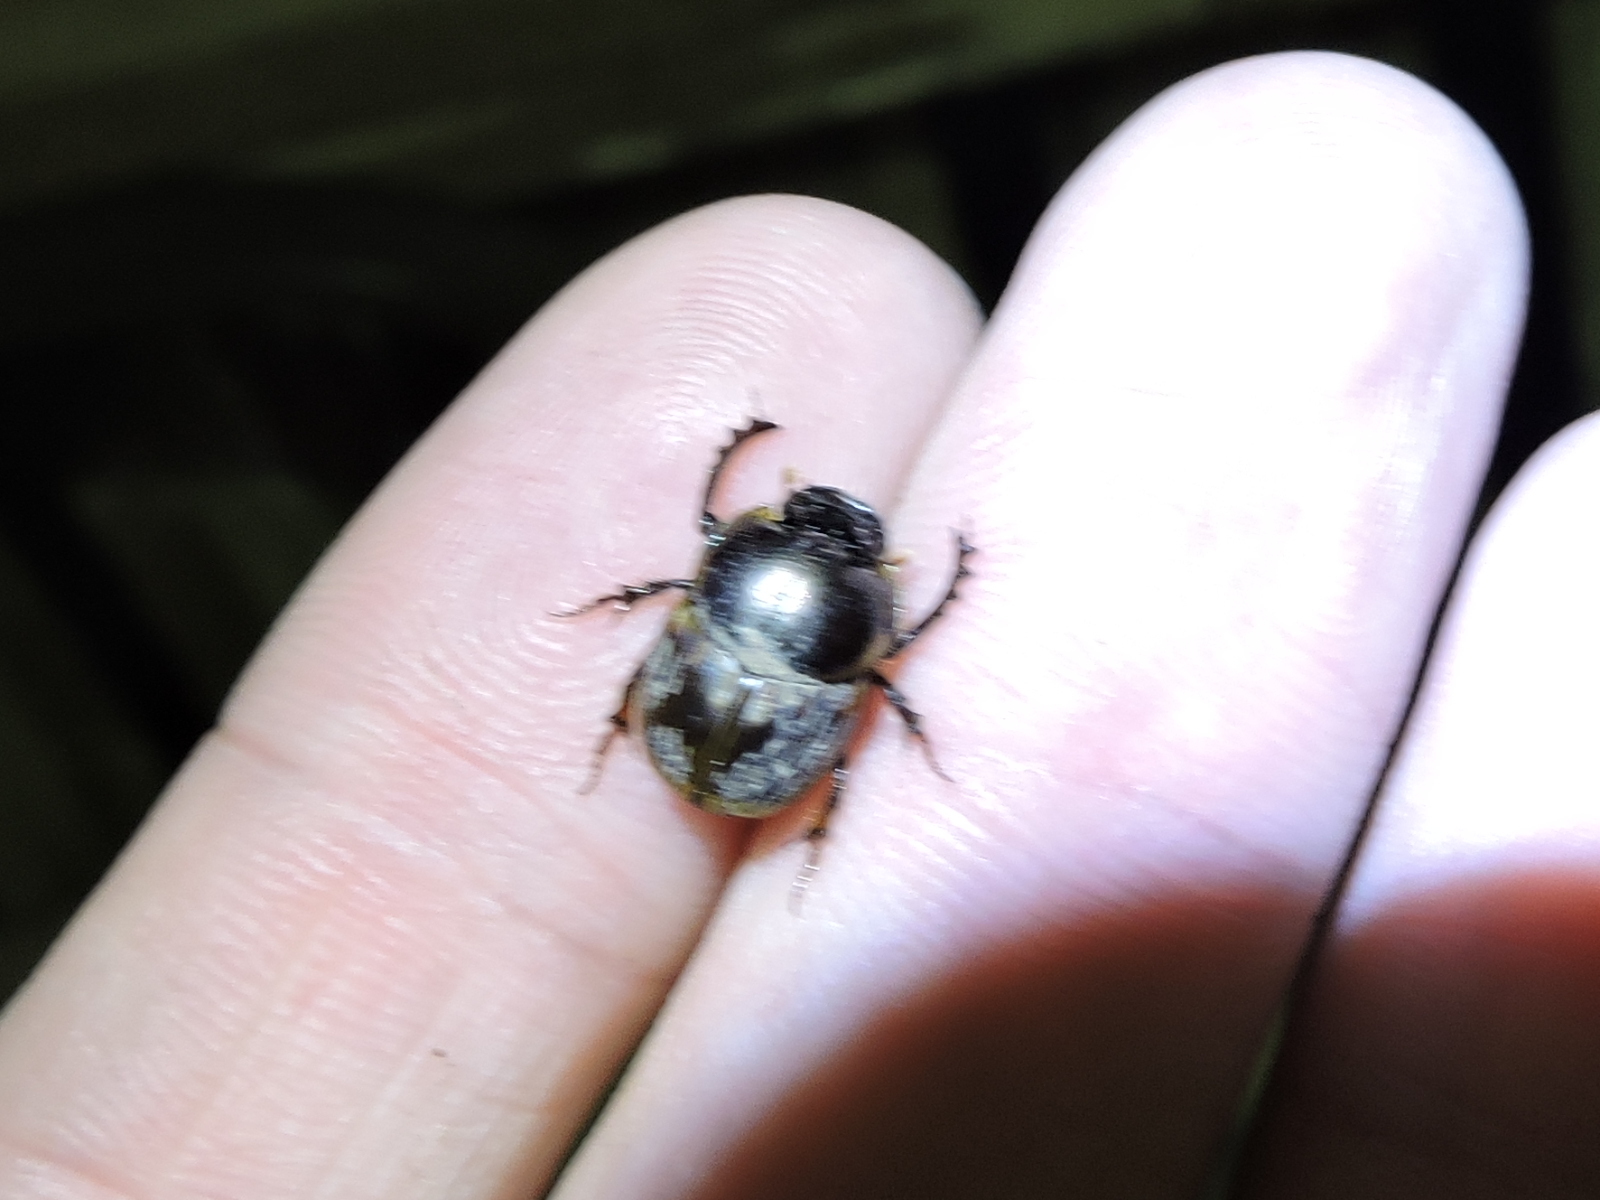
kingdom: Animalia
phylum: Arthropoda
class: Insecta
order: Coleoptera
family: Scarabaeidae
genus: Digitonthophagus
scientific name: Digitonthophagus gazella
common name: Brown dung beetle
